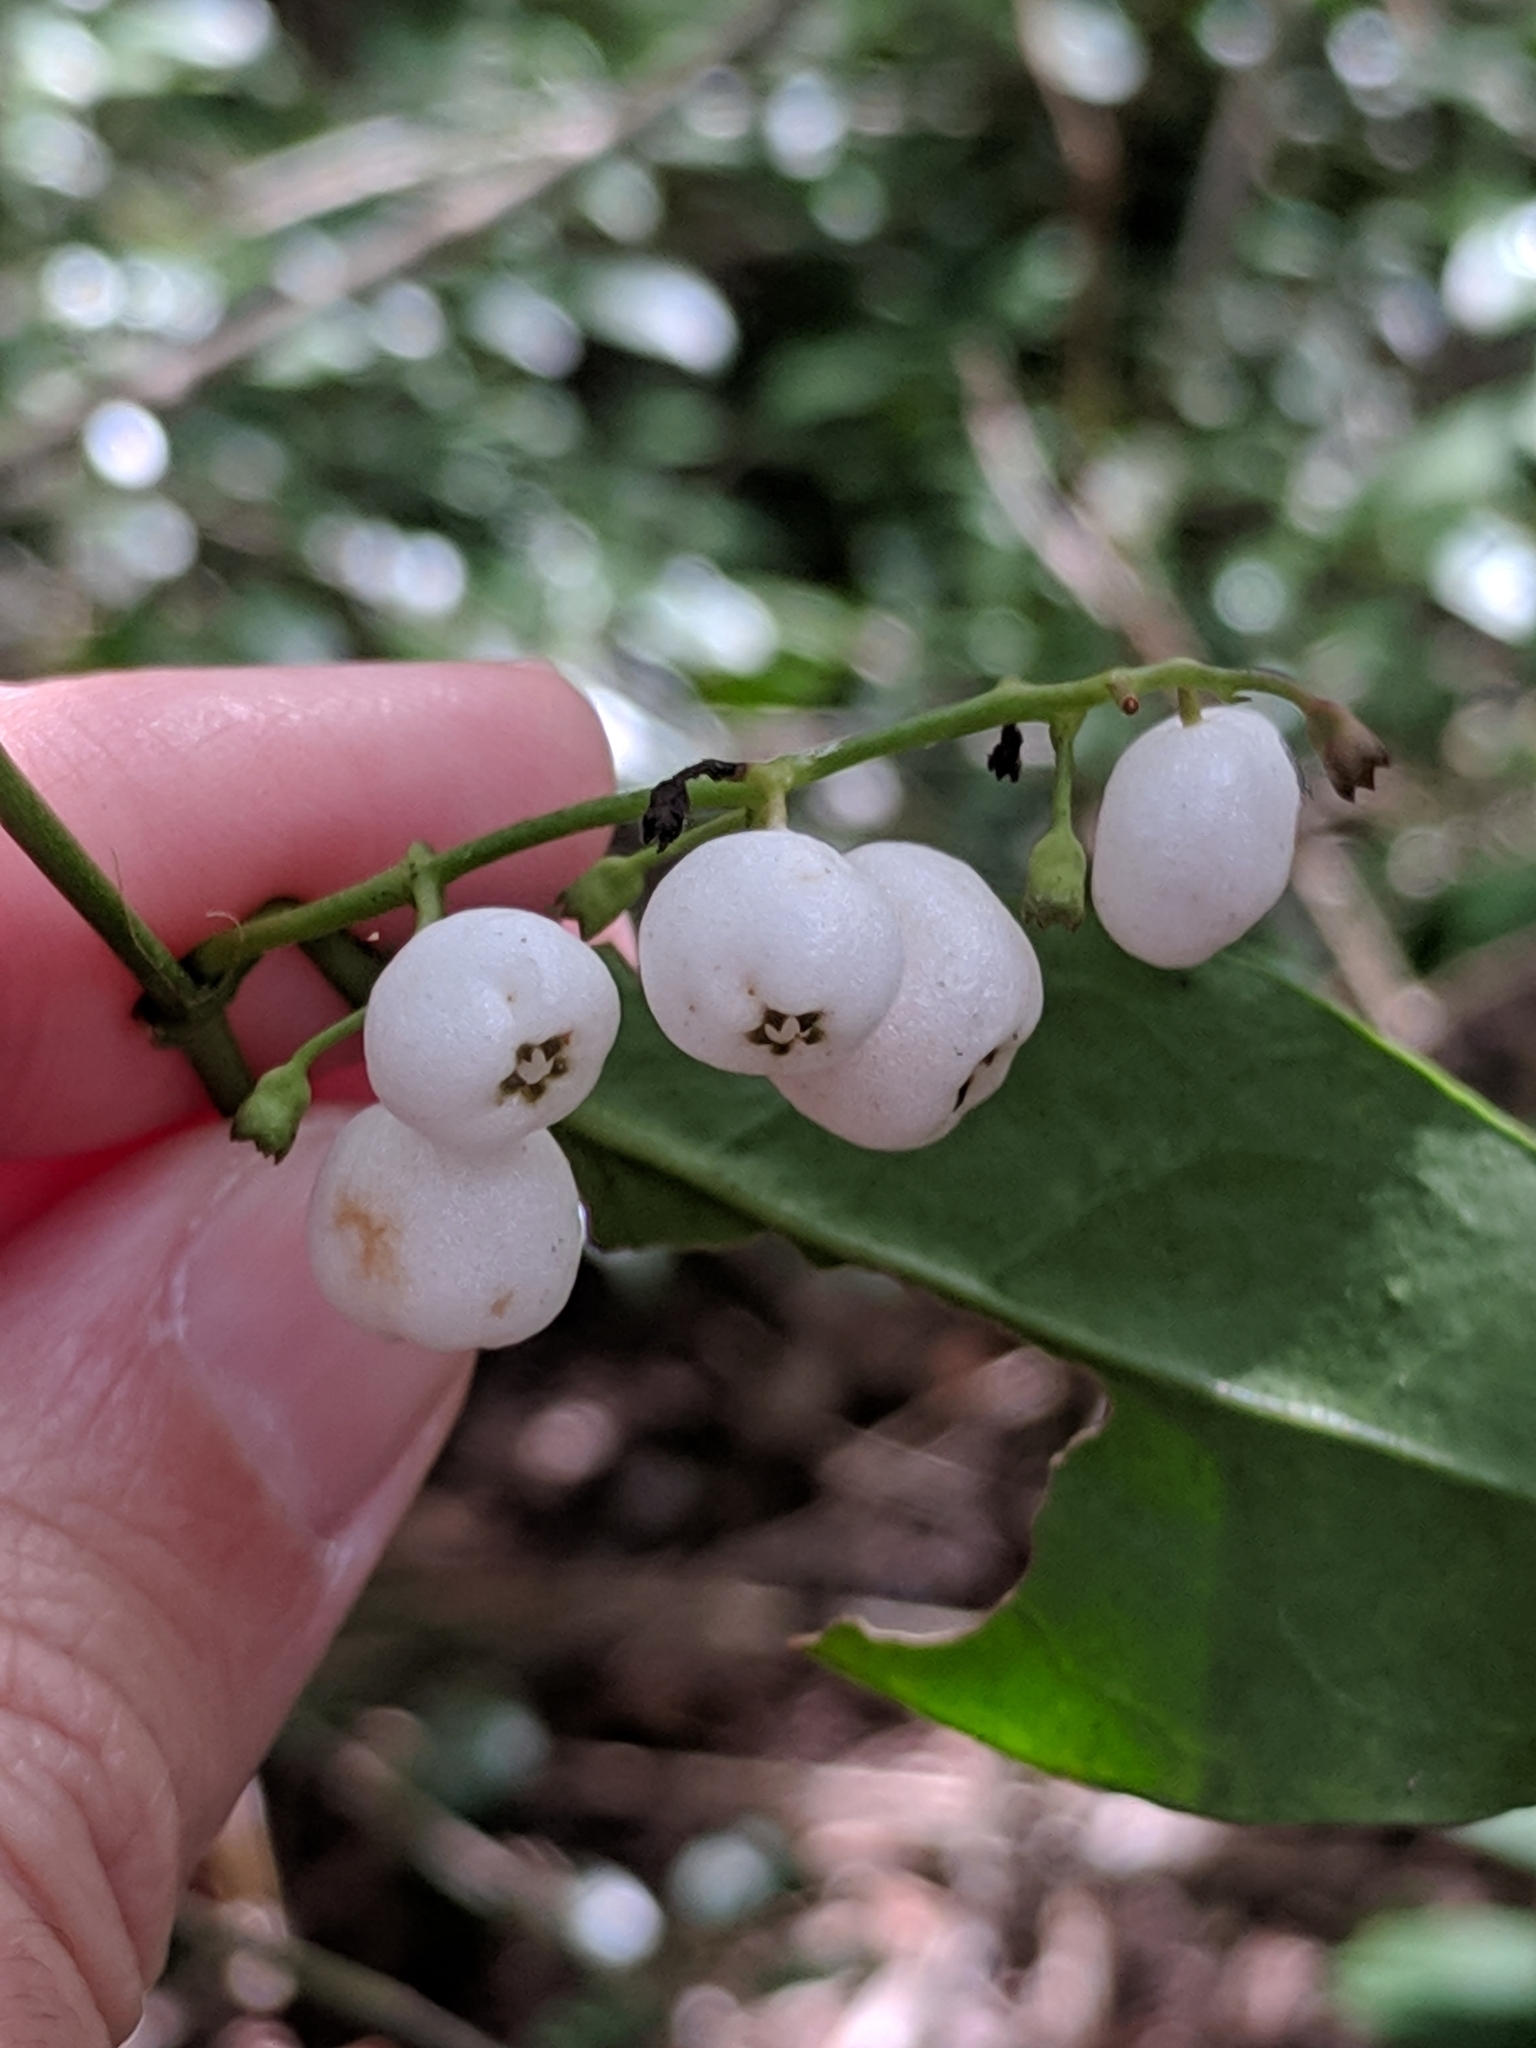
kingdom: Plantae
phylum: Tracheophyta
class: Magnoliopsida
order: Gentianales
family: Rubiaceae
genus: Chiococca
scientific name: Chiococca alba
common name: Snowberry
